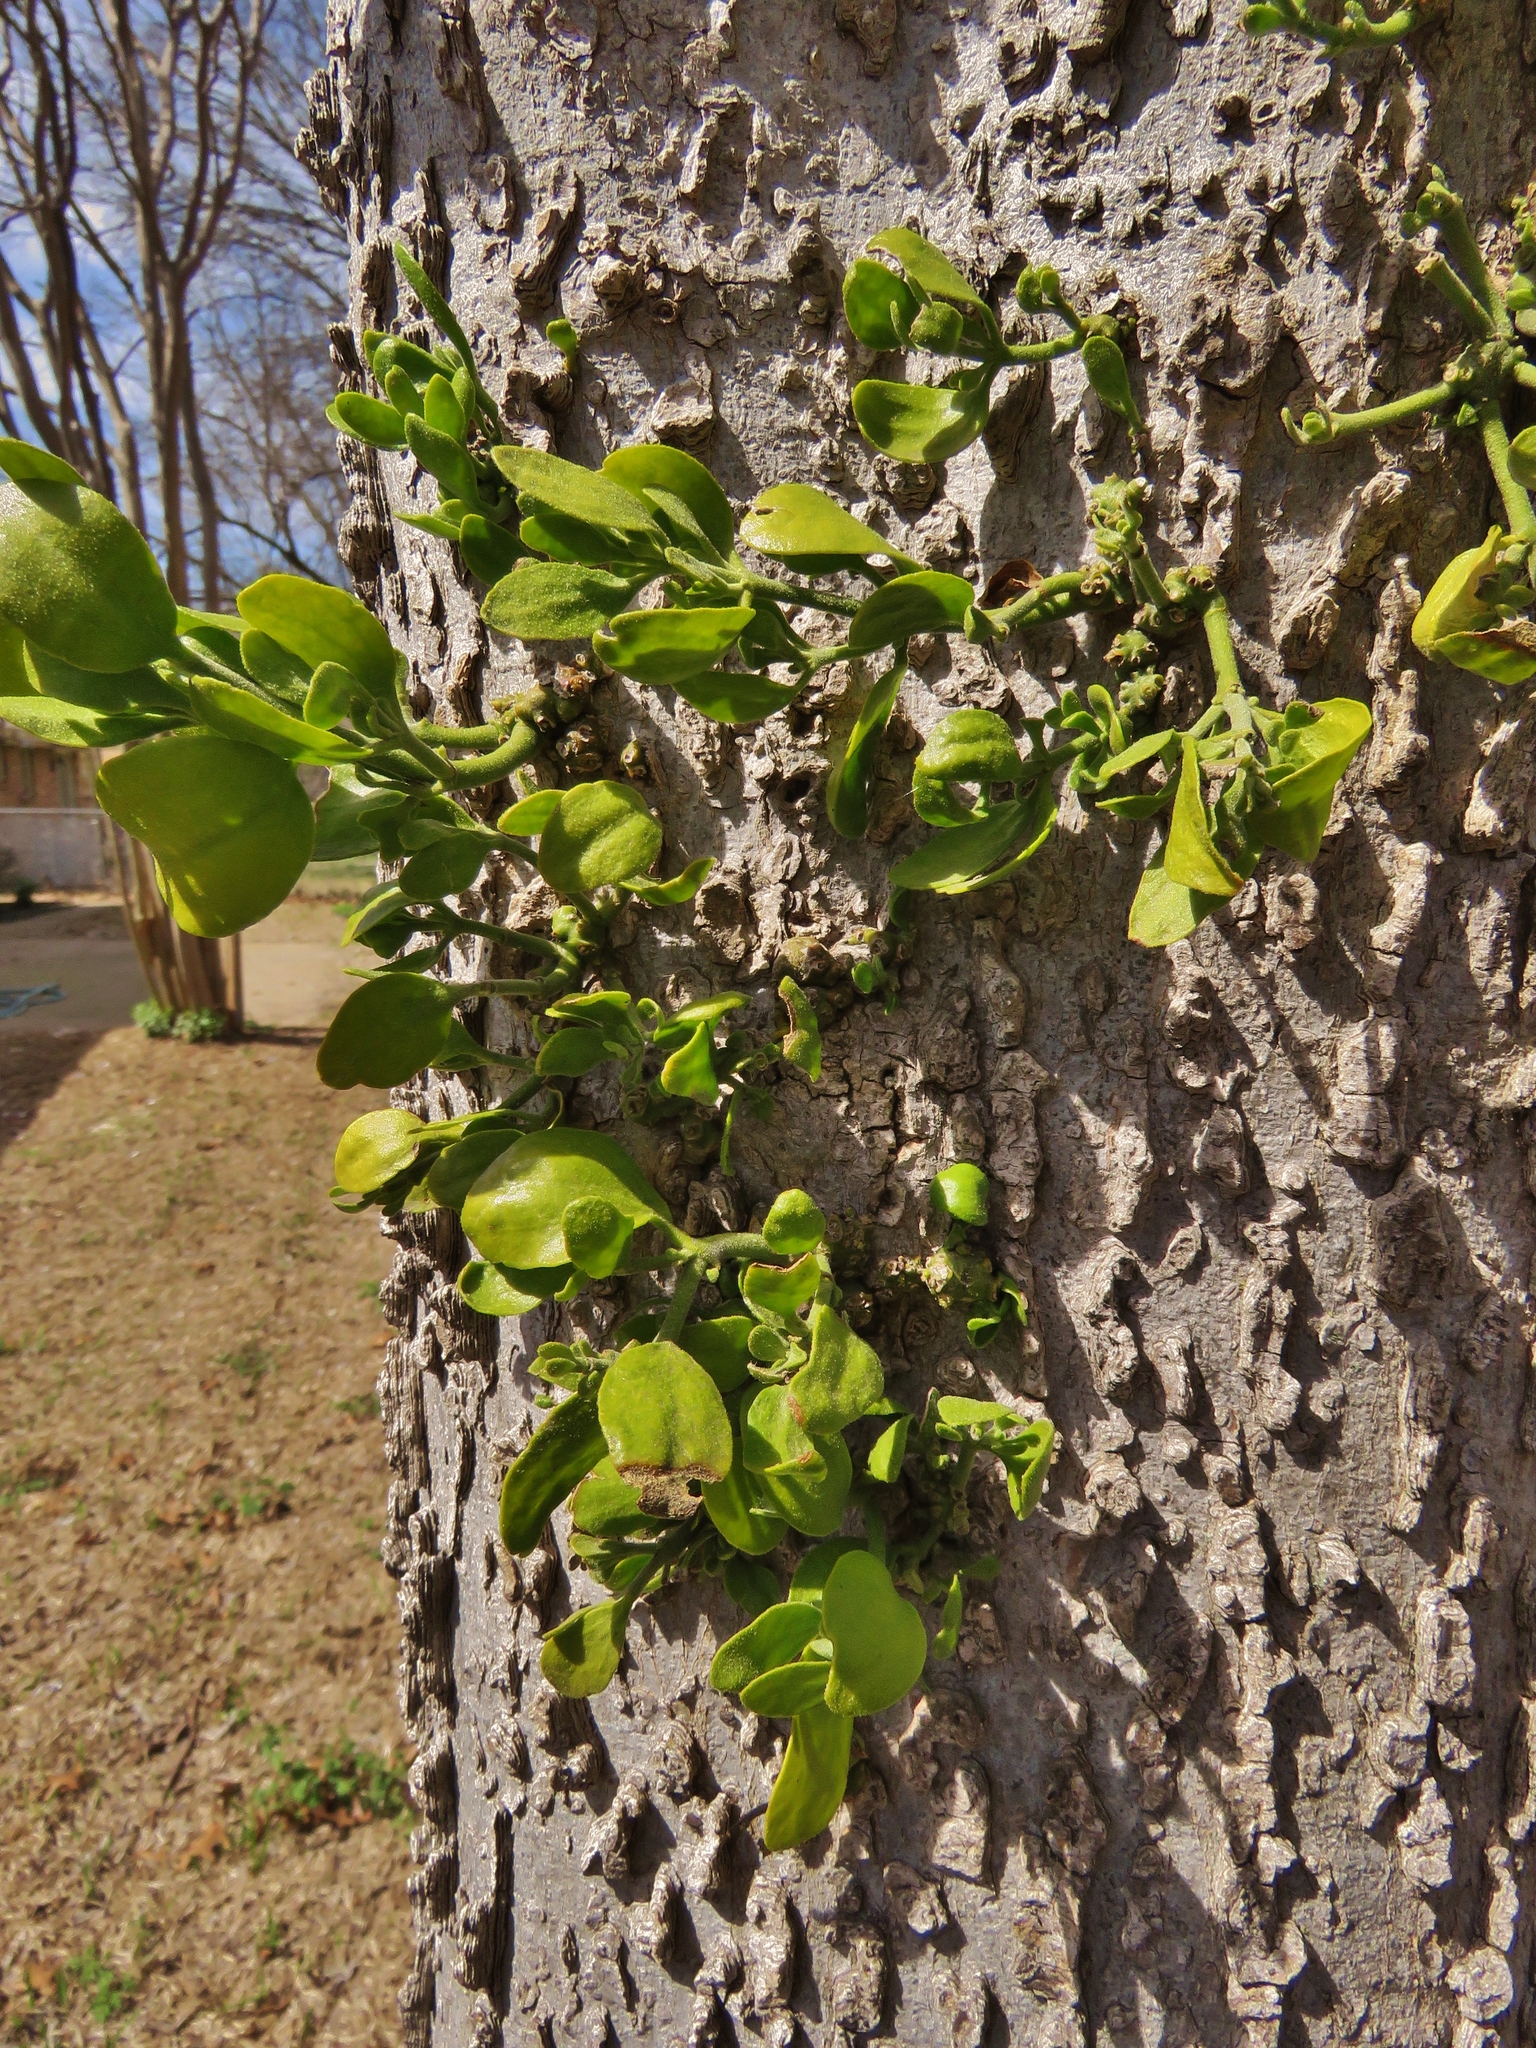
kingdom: Plantae
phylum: Tracheophyta
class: Magnoliopsida
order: Santalales
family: Viscaceae
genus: Phoradendron
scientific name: Phoradendron leucarpum
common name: Pacific mistletoe
